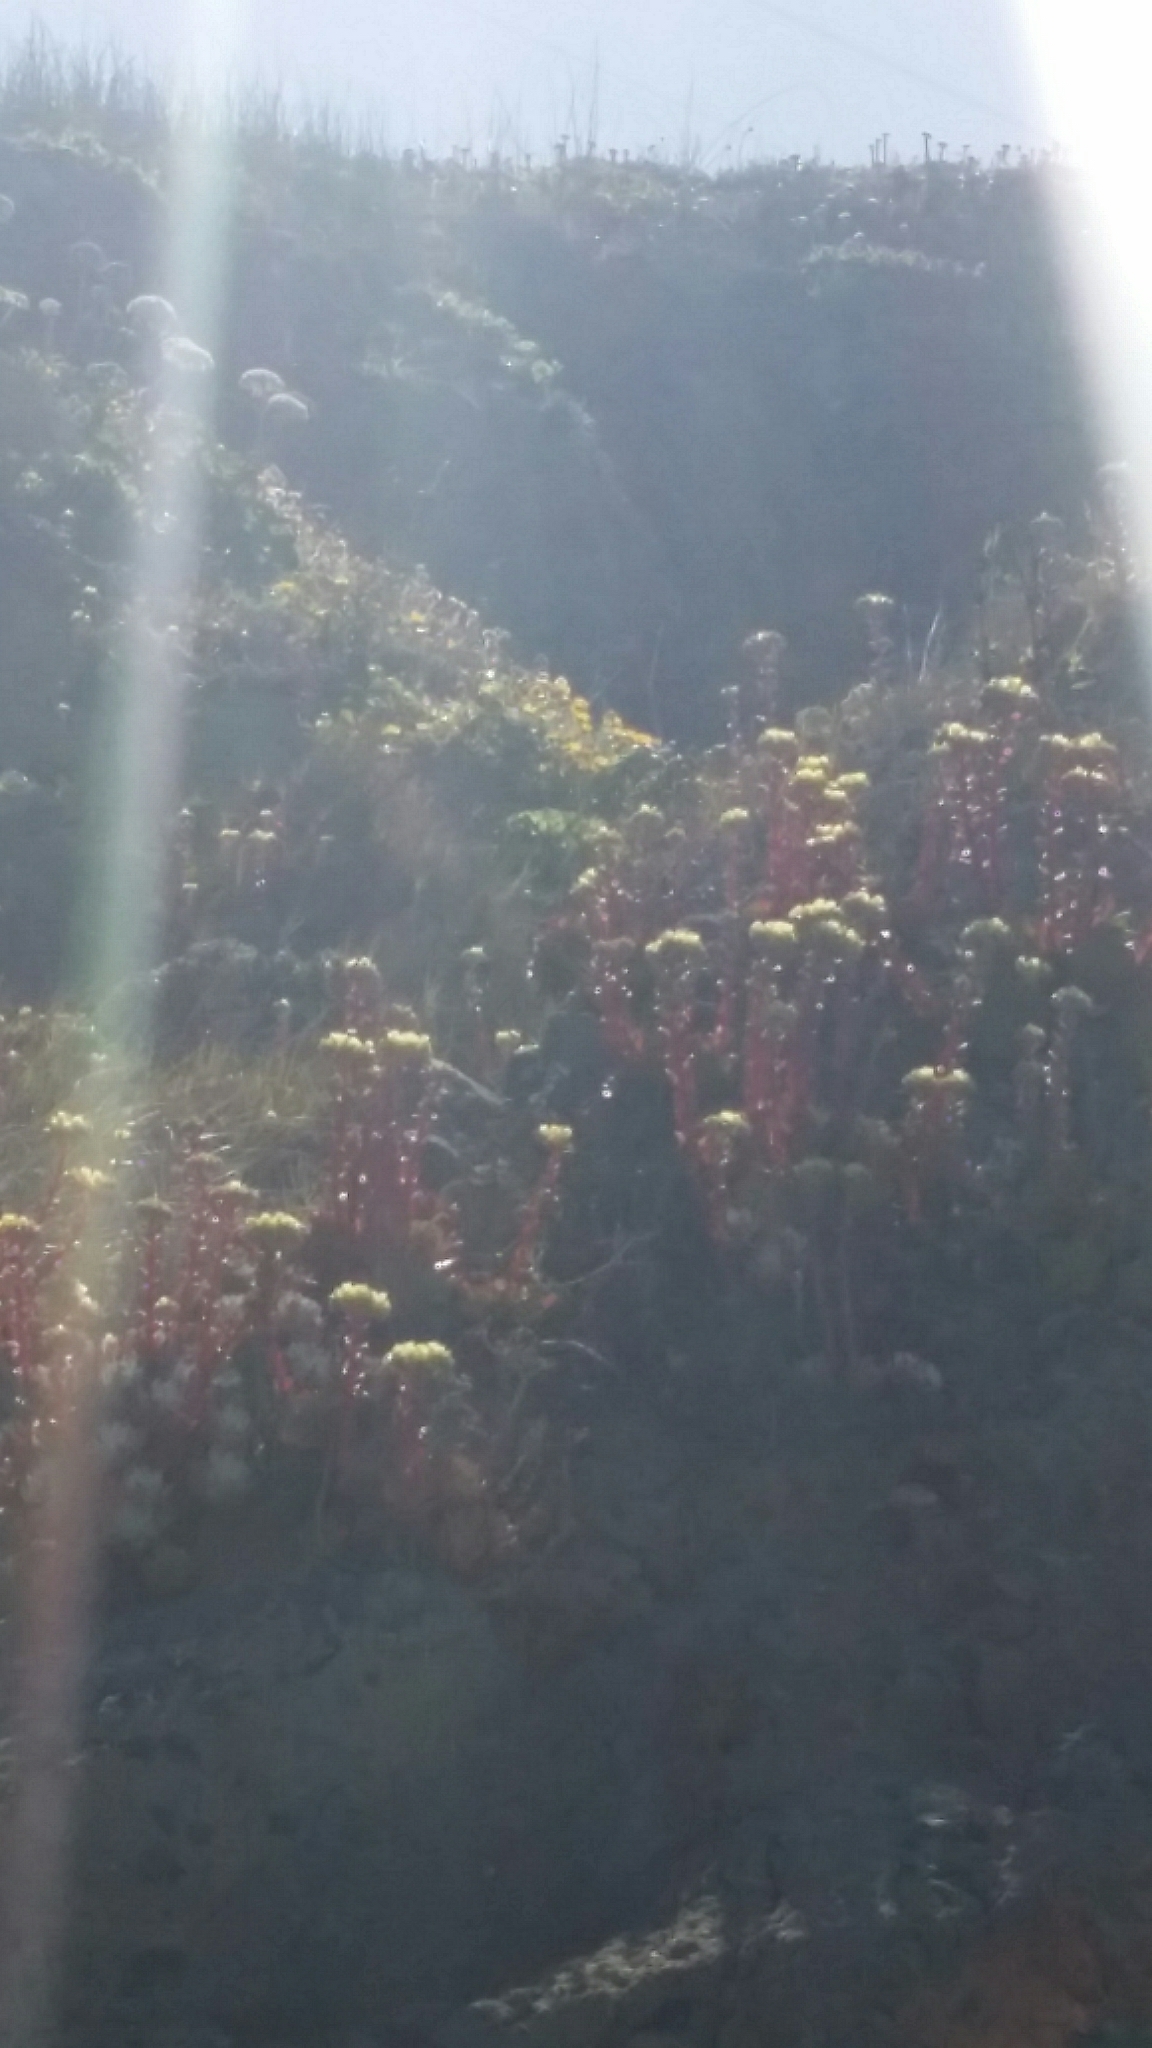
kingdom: Plantae
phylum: Tracheophyta
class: Magnoliopsida
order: Saxifragales
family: Crassulaceae
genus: Dudleya
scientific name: Dudleya farinosa
